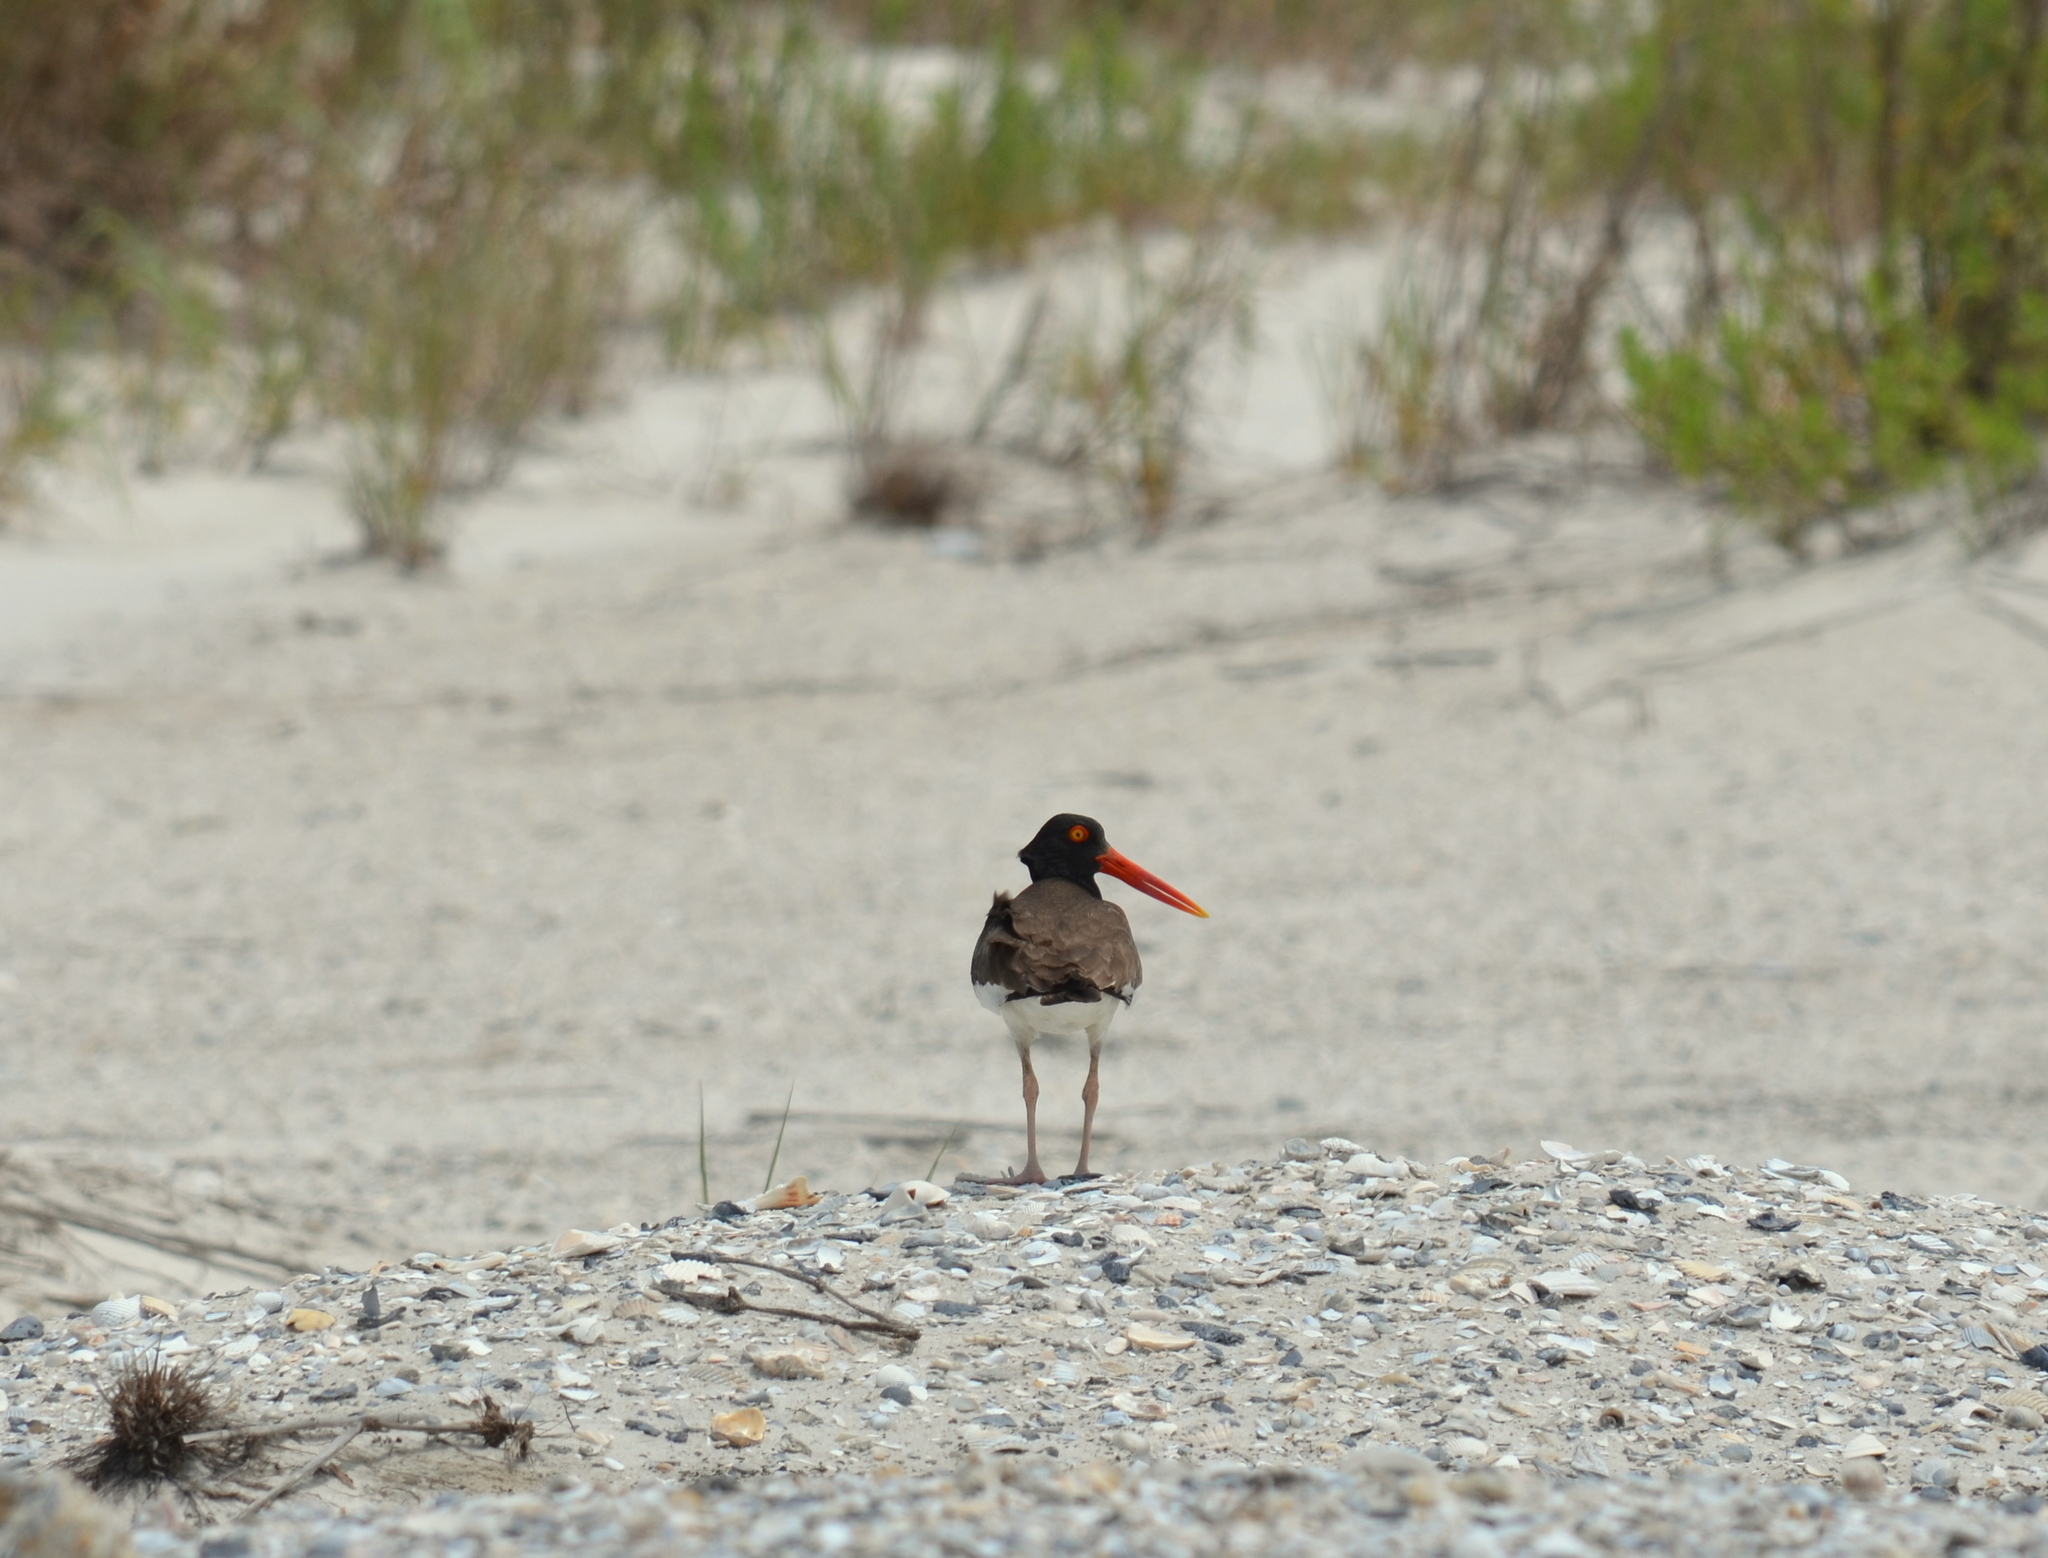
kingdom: Animalia
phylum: Chordata
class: Aves
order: Charadriiformes
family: Haematopodidae
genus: Haematopus
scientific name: Haematopus palliatus
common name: American oystercatcher
